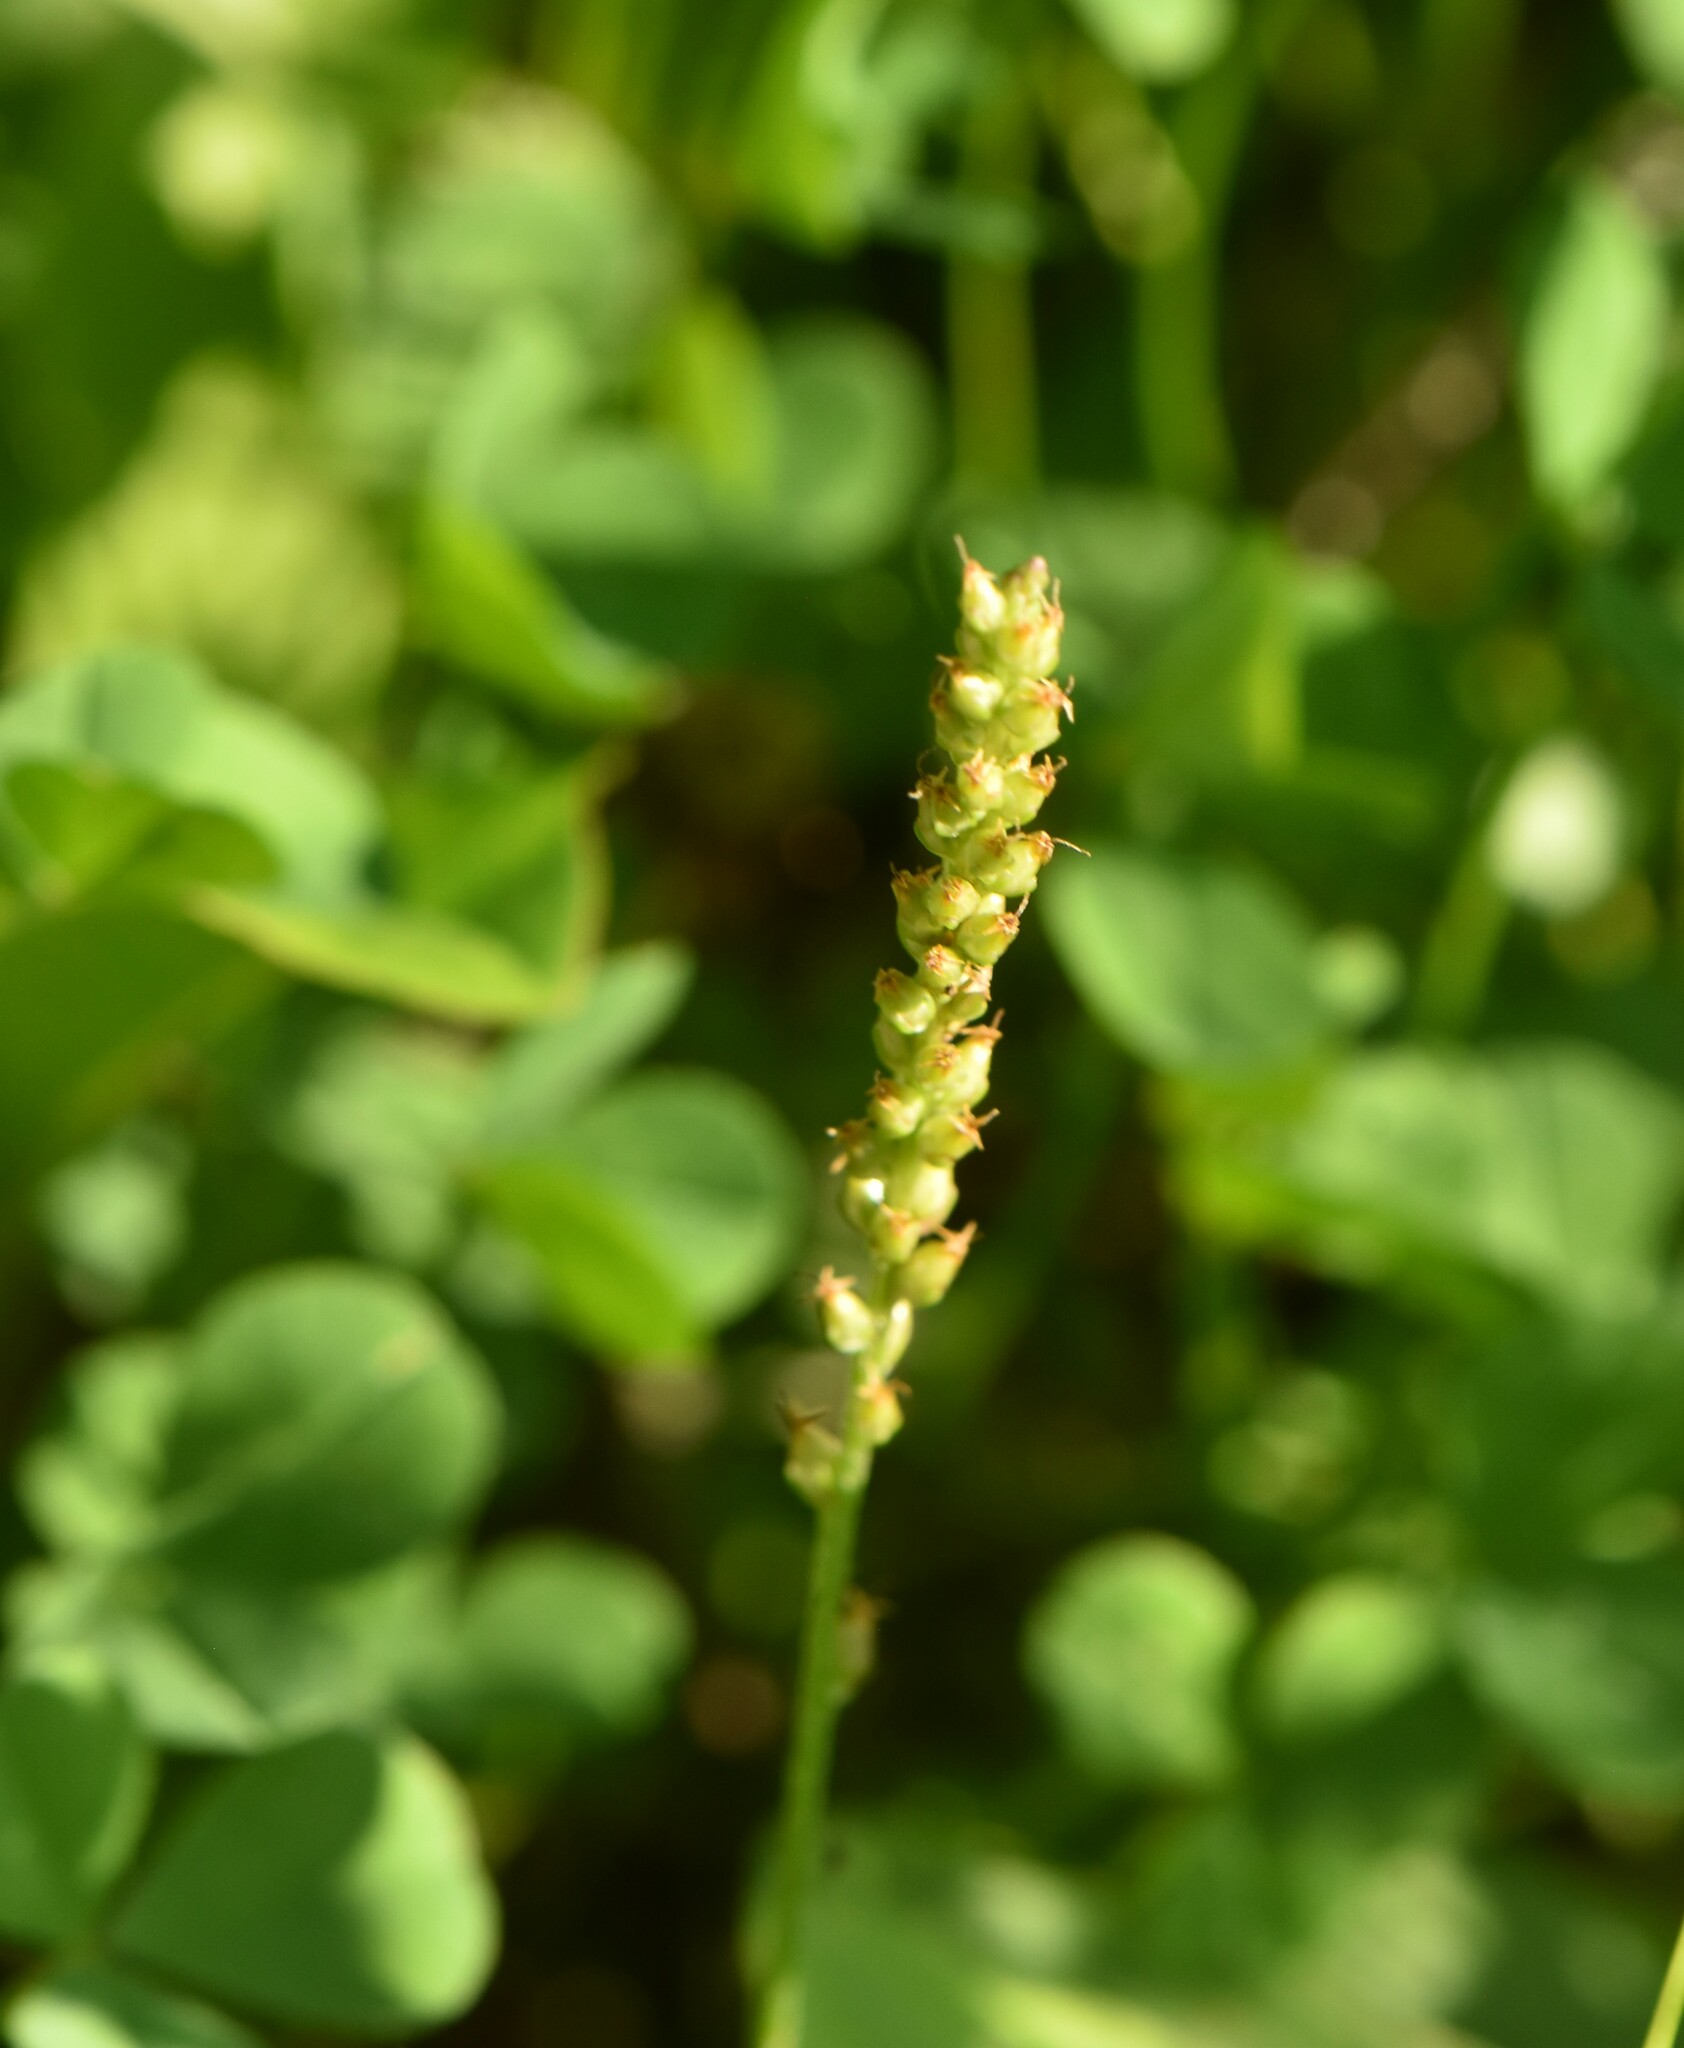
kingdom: Plantae
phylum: Tracheophyta
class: Magnoliopsida
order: Lamiales
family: Plantaginaceae
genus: Plantago
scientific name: Plantago major
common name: Common plantain
